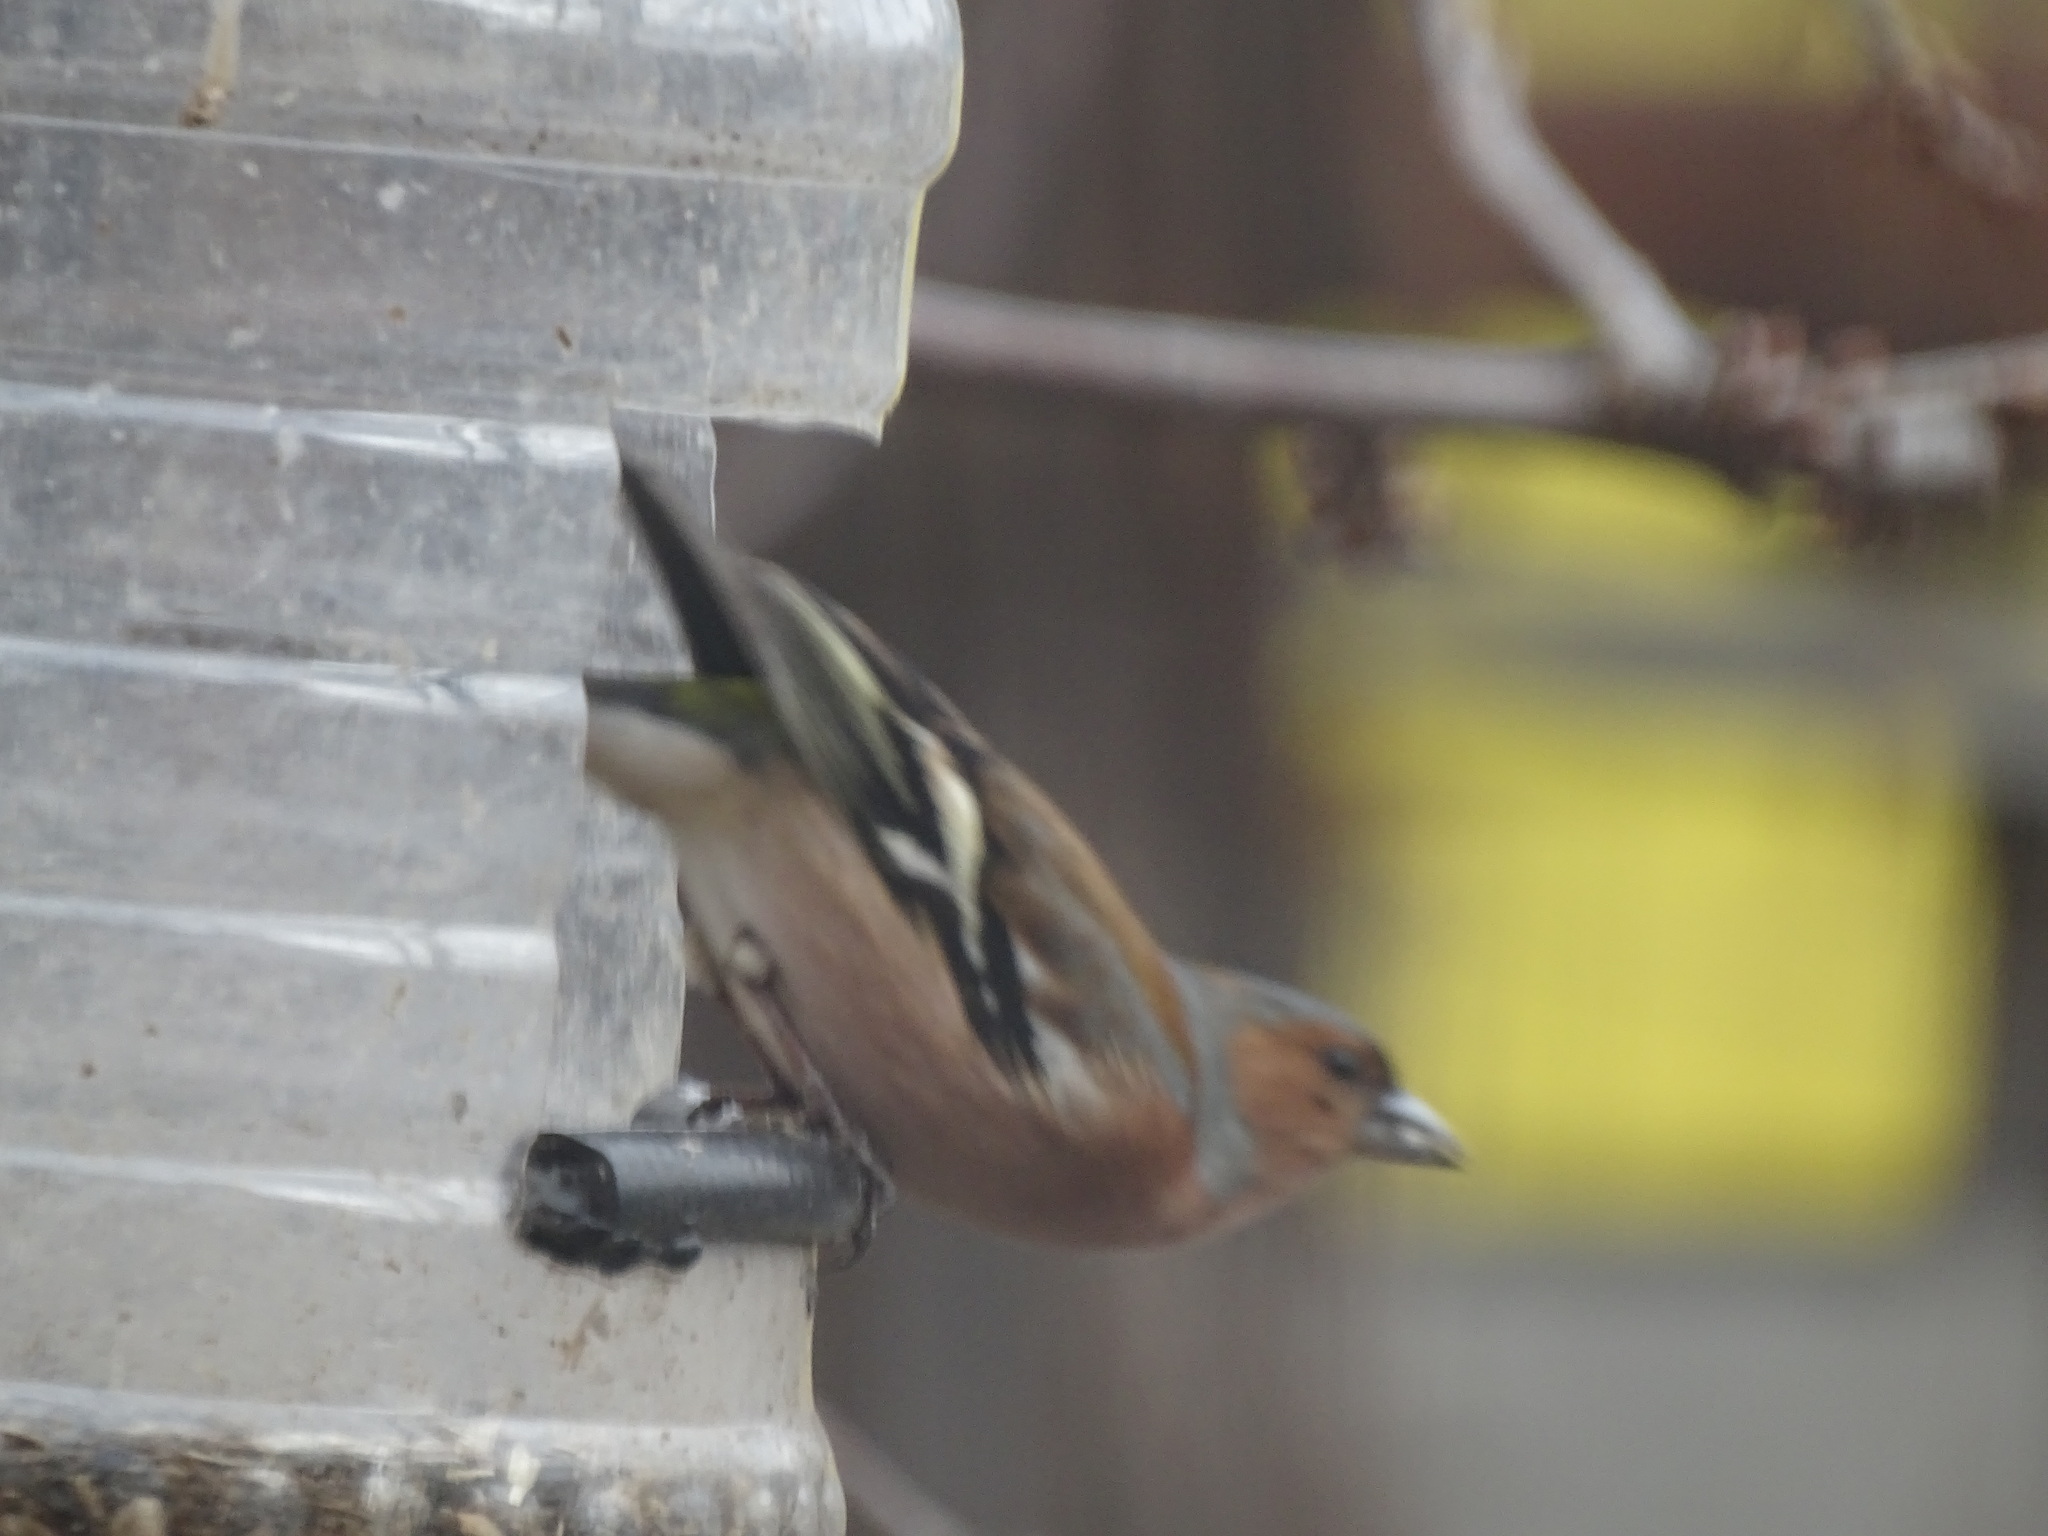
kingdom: Animalia
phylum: Chordata
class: Aves
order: Passeriformes
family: Fringillidae
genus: Fringilla
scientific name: Fringilla coelebs
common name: Common chaffinch
